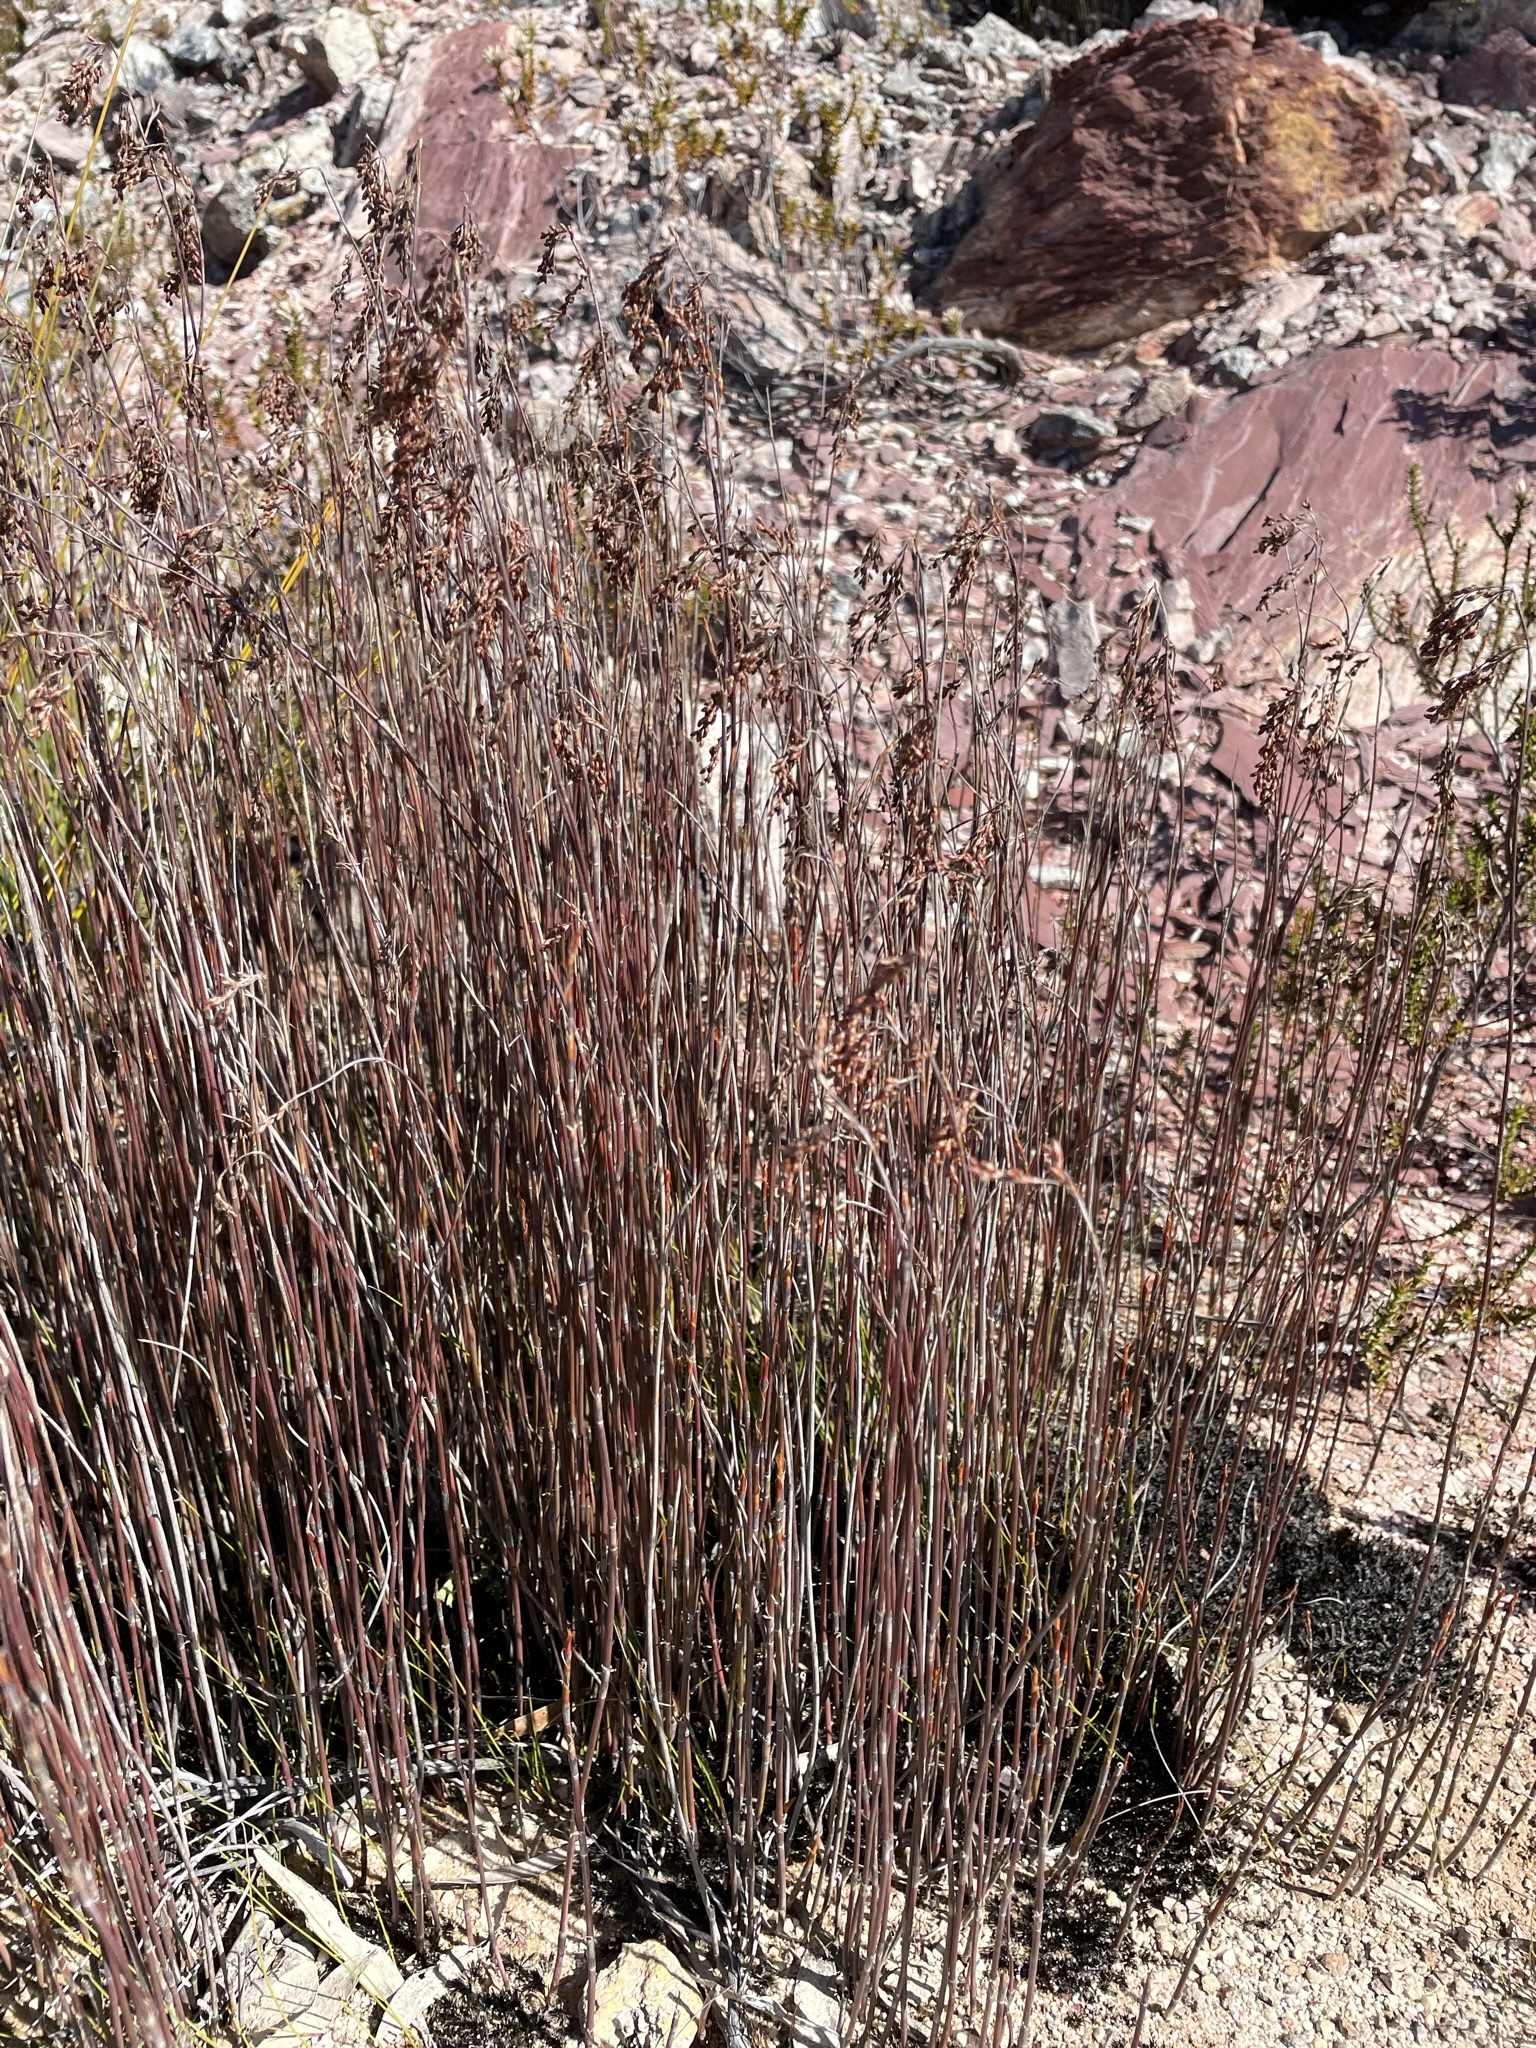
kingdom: Plantae
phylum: Tracheophyta
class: Liliopsida
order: Poales
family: Restionaceae
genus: Leptocarpus
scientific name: Leptocarpus tenax
